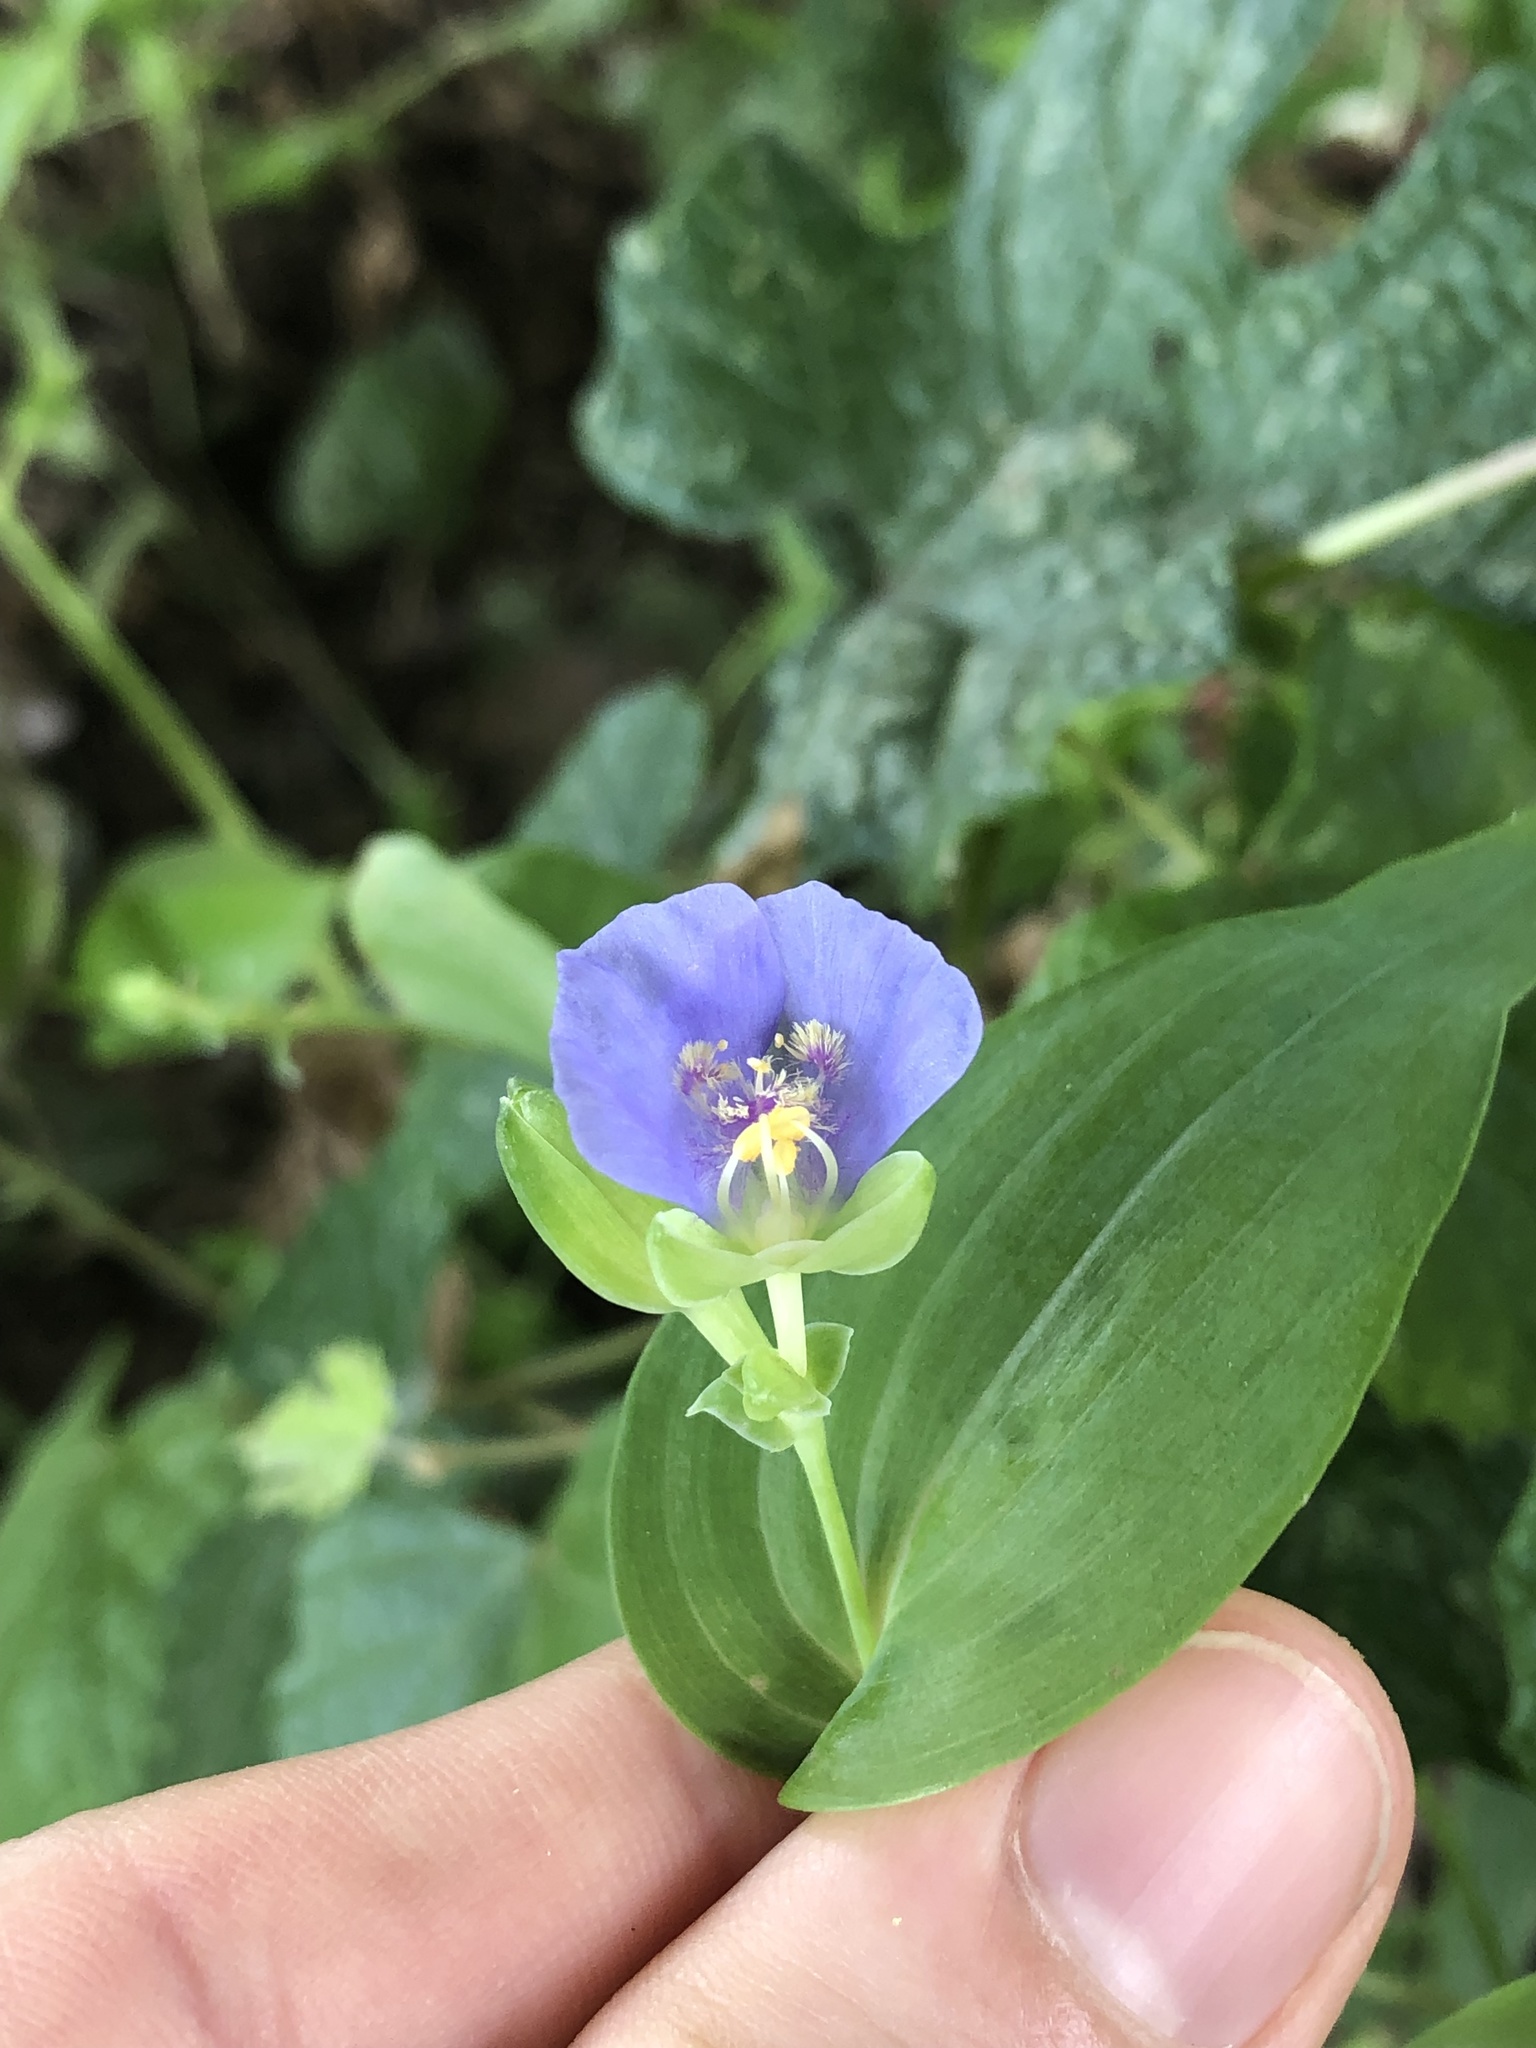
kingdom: Plantae
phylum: Tracheophyta
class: Liliopsida
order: Commelinales
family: Commelinaceae
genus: Tinantia
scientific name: Tinantia anomala
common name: False dayflower
